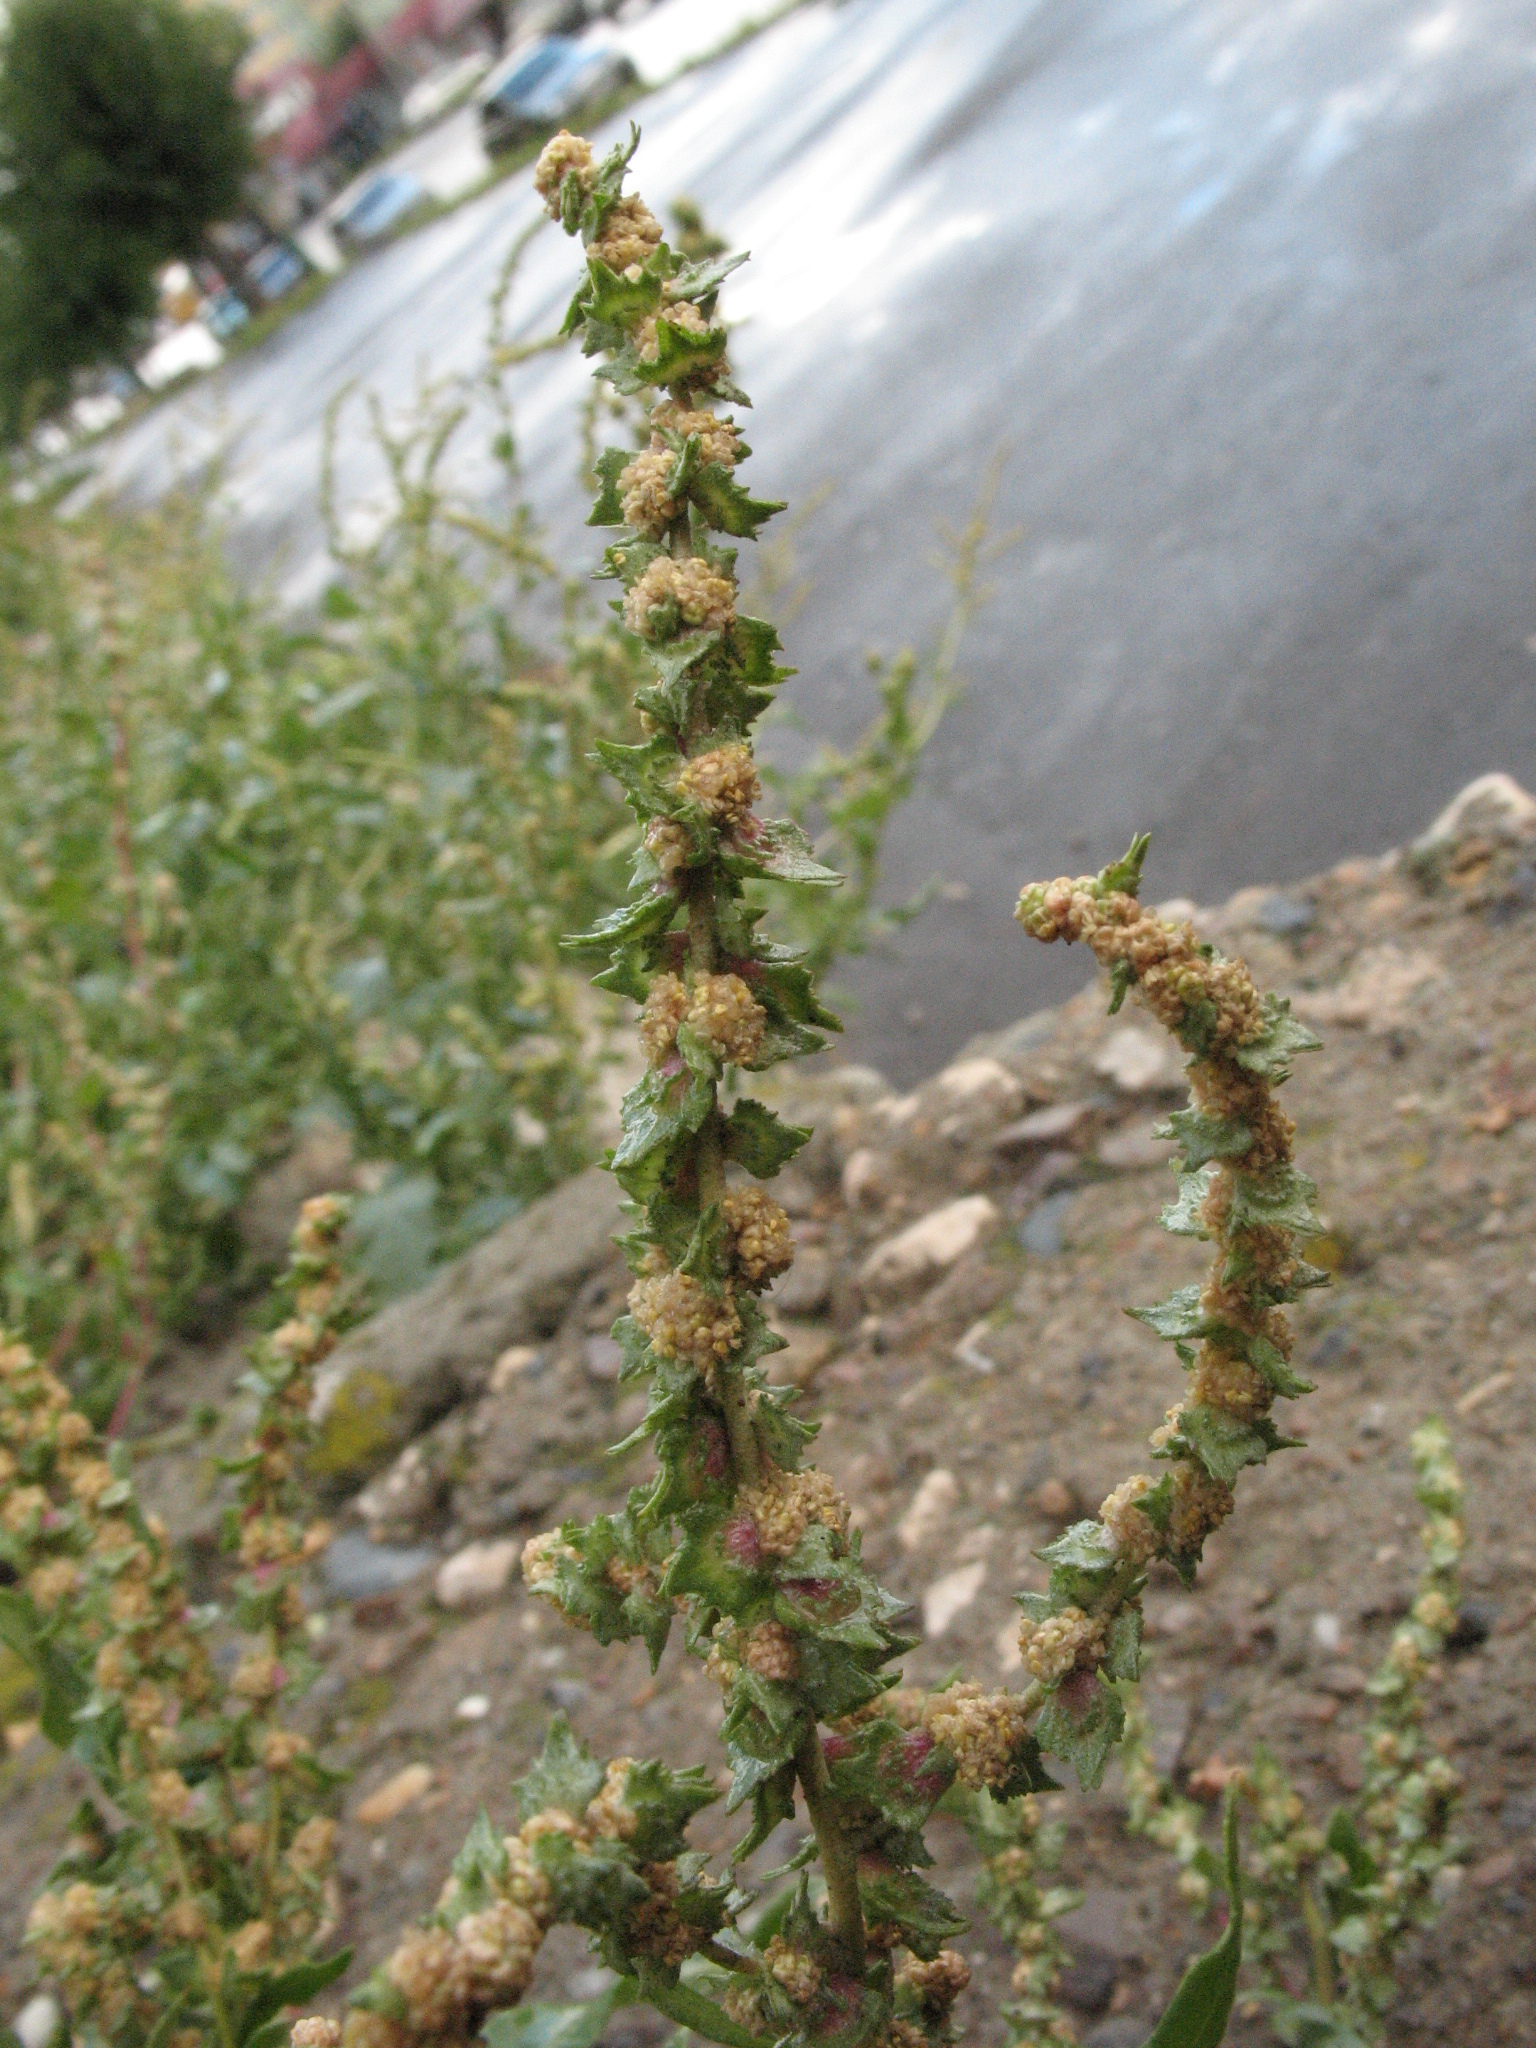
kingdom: Plantae
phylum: Tracheophyta
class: Magnoliopsida
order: Caryophyllales
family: Amaranthaceae
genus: Atriplex
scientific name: Atriplex tatarica
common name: Tatarian orache
